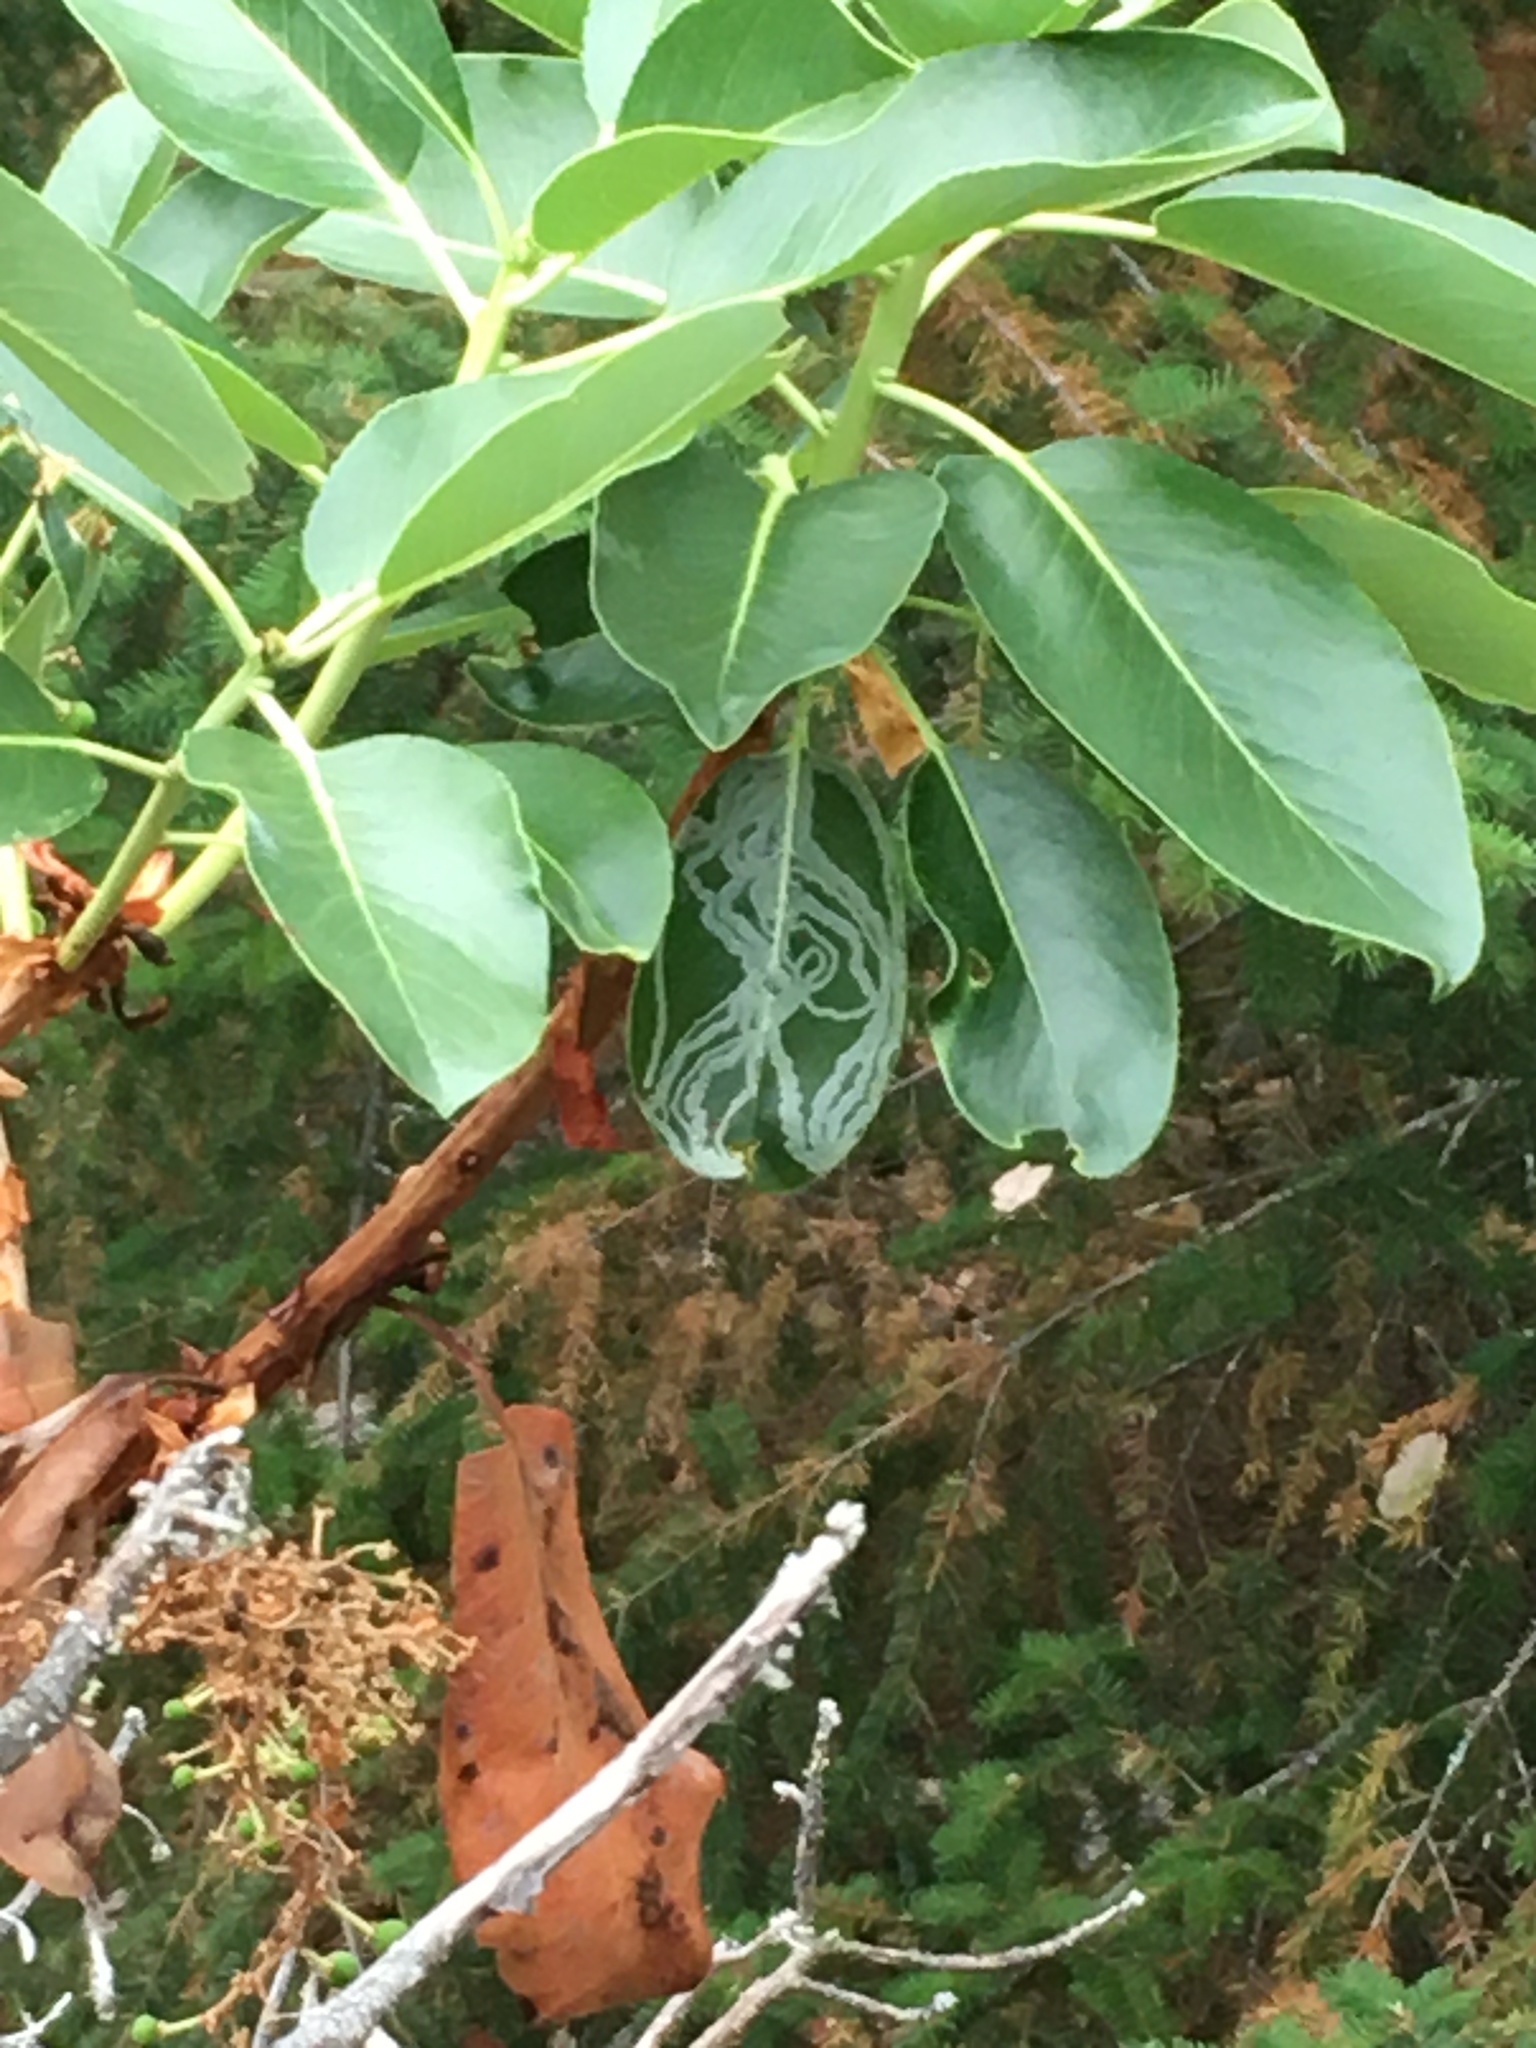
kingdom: Animalia
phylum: Arthropoda
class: Insecta
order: Lepidoptera
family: Gracillariidae
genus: Marmara
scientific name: Marmara arbutiella
